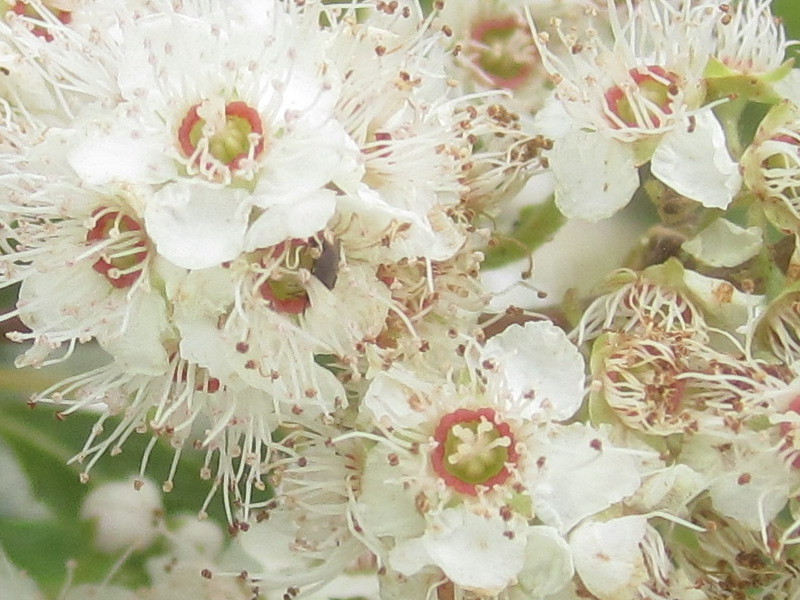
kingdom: Plantae
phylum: Tracheophyta
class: Magnoliopsida
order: Rosales
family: Rosaceae
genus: Spiraea
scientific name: Spiraea alba
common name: Pale bridewort
